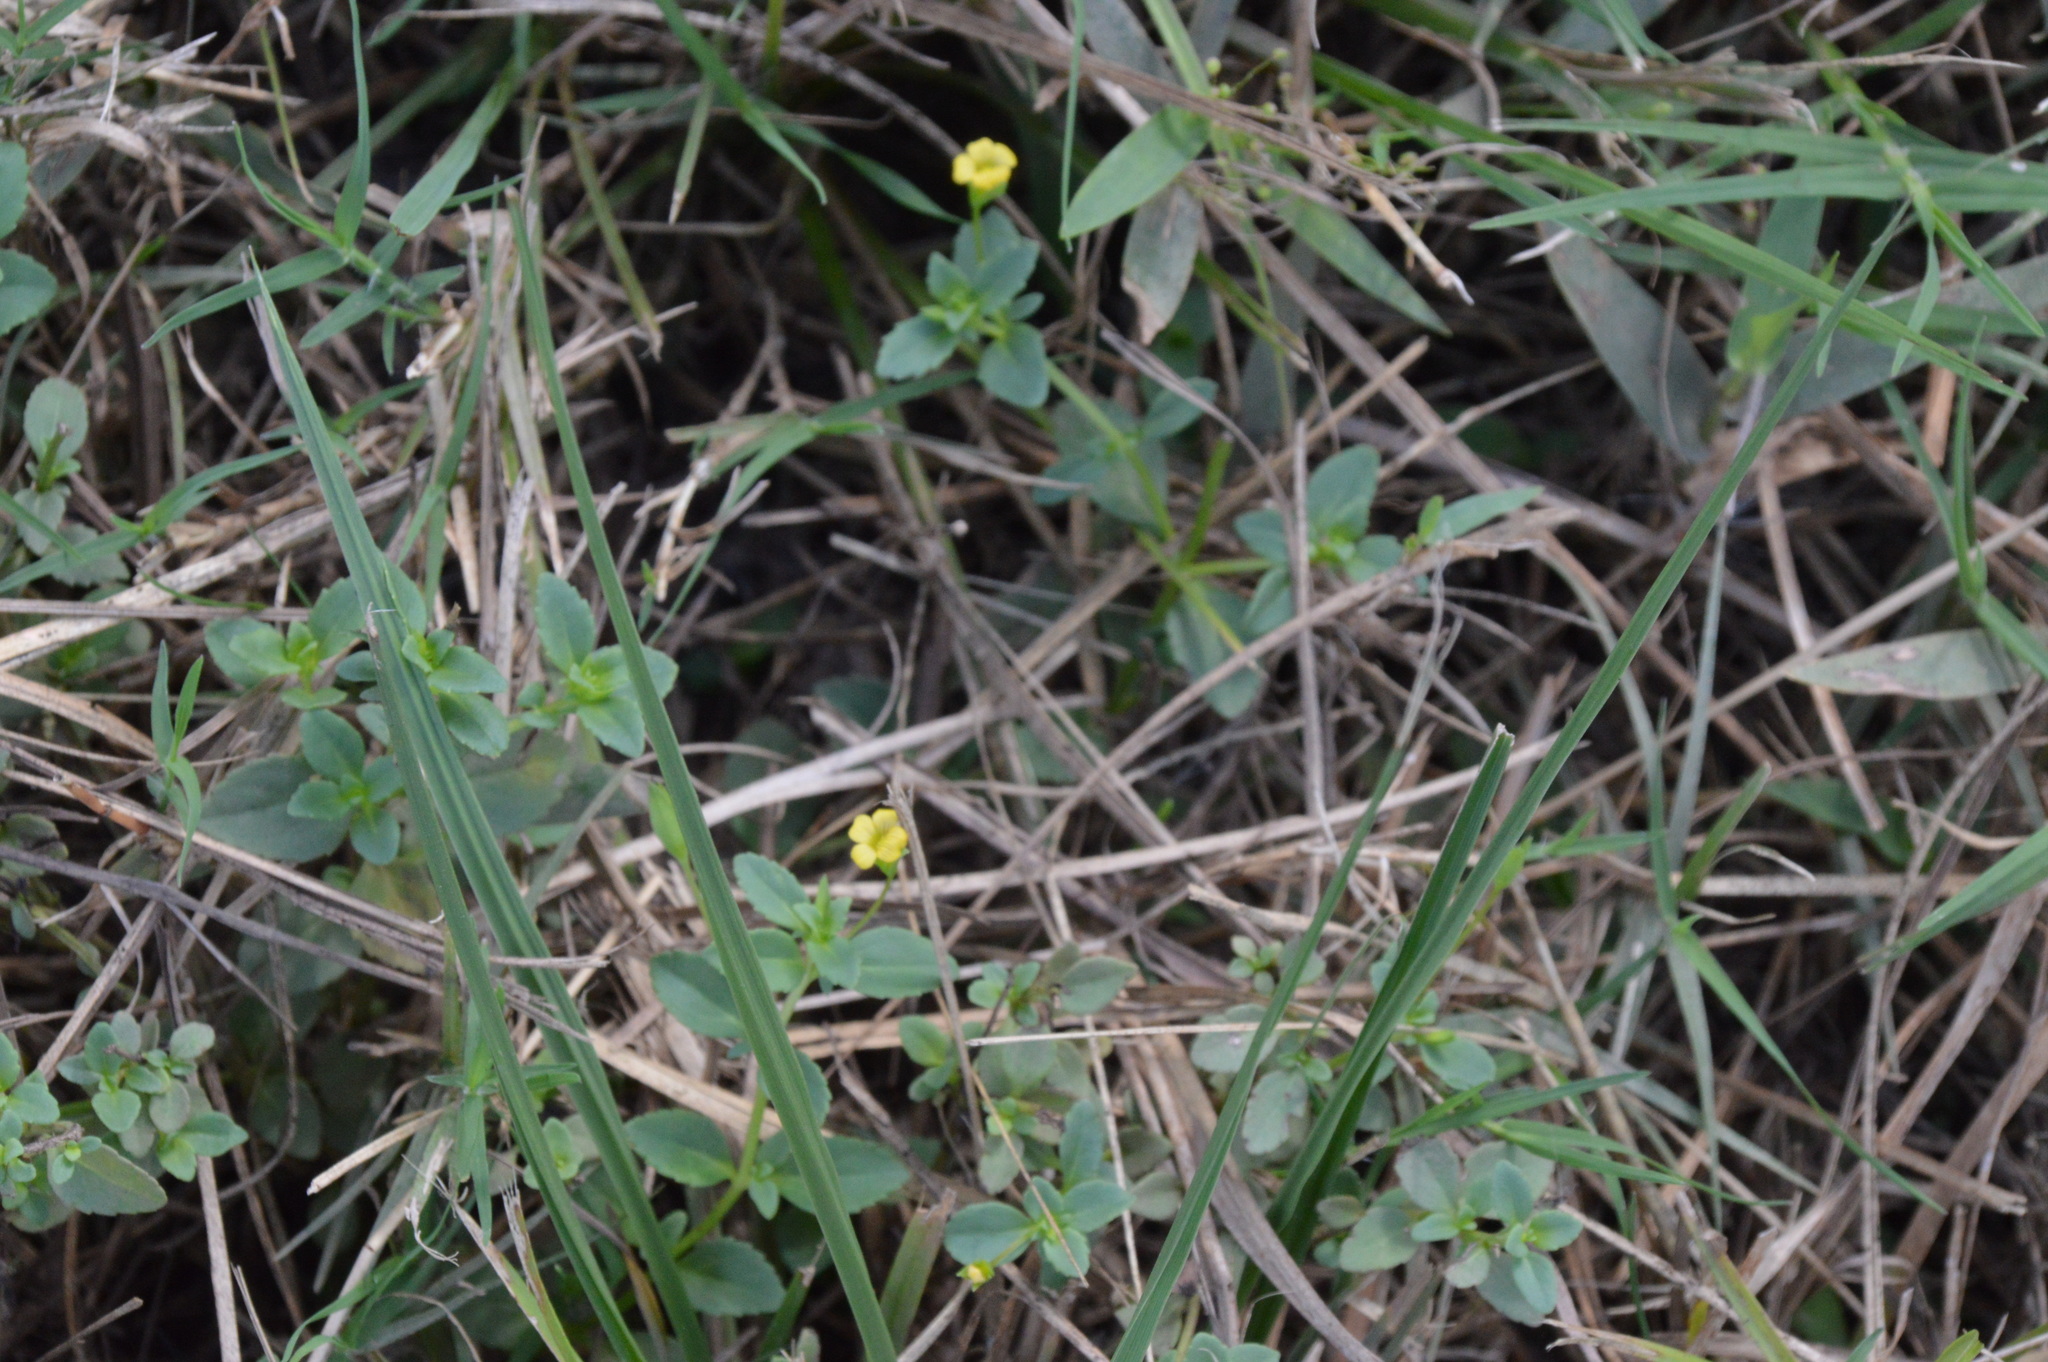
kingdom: Plantae
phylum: Tracheophyta
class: Magnoliopsida
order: Lamiales
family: Plantaginaceae
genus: Mecardonia
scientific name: Mecardonia procumbens
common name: Baby jump-up
